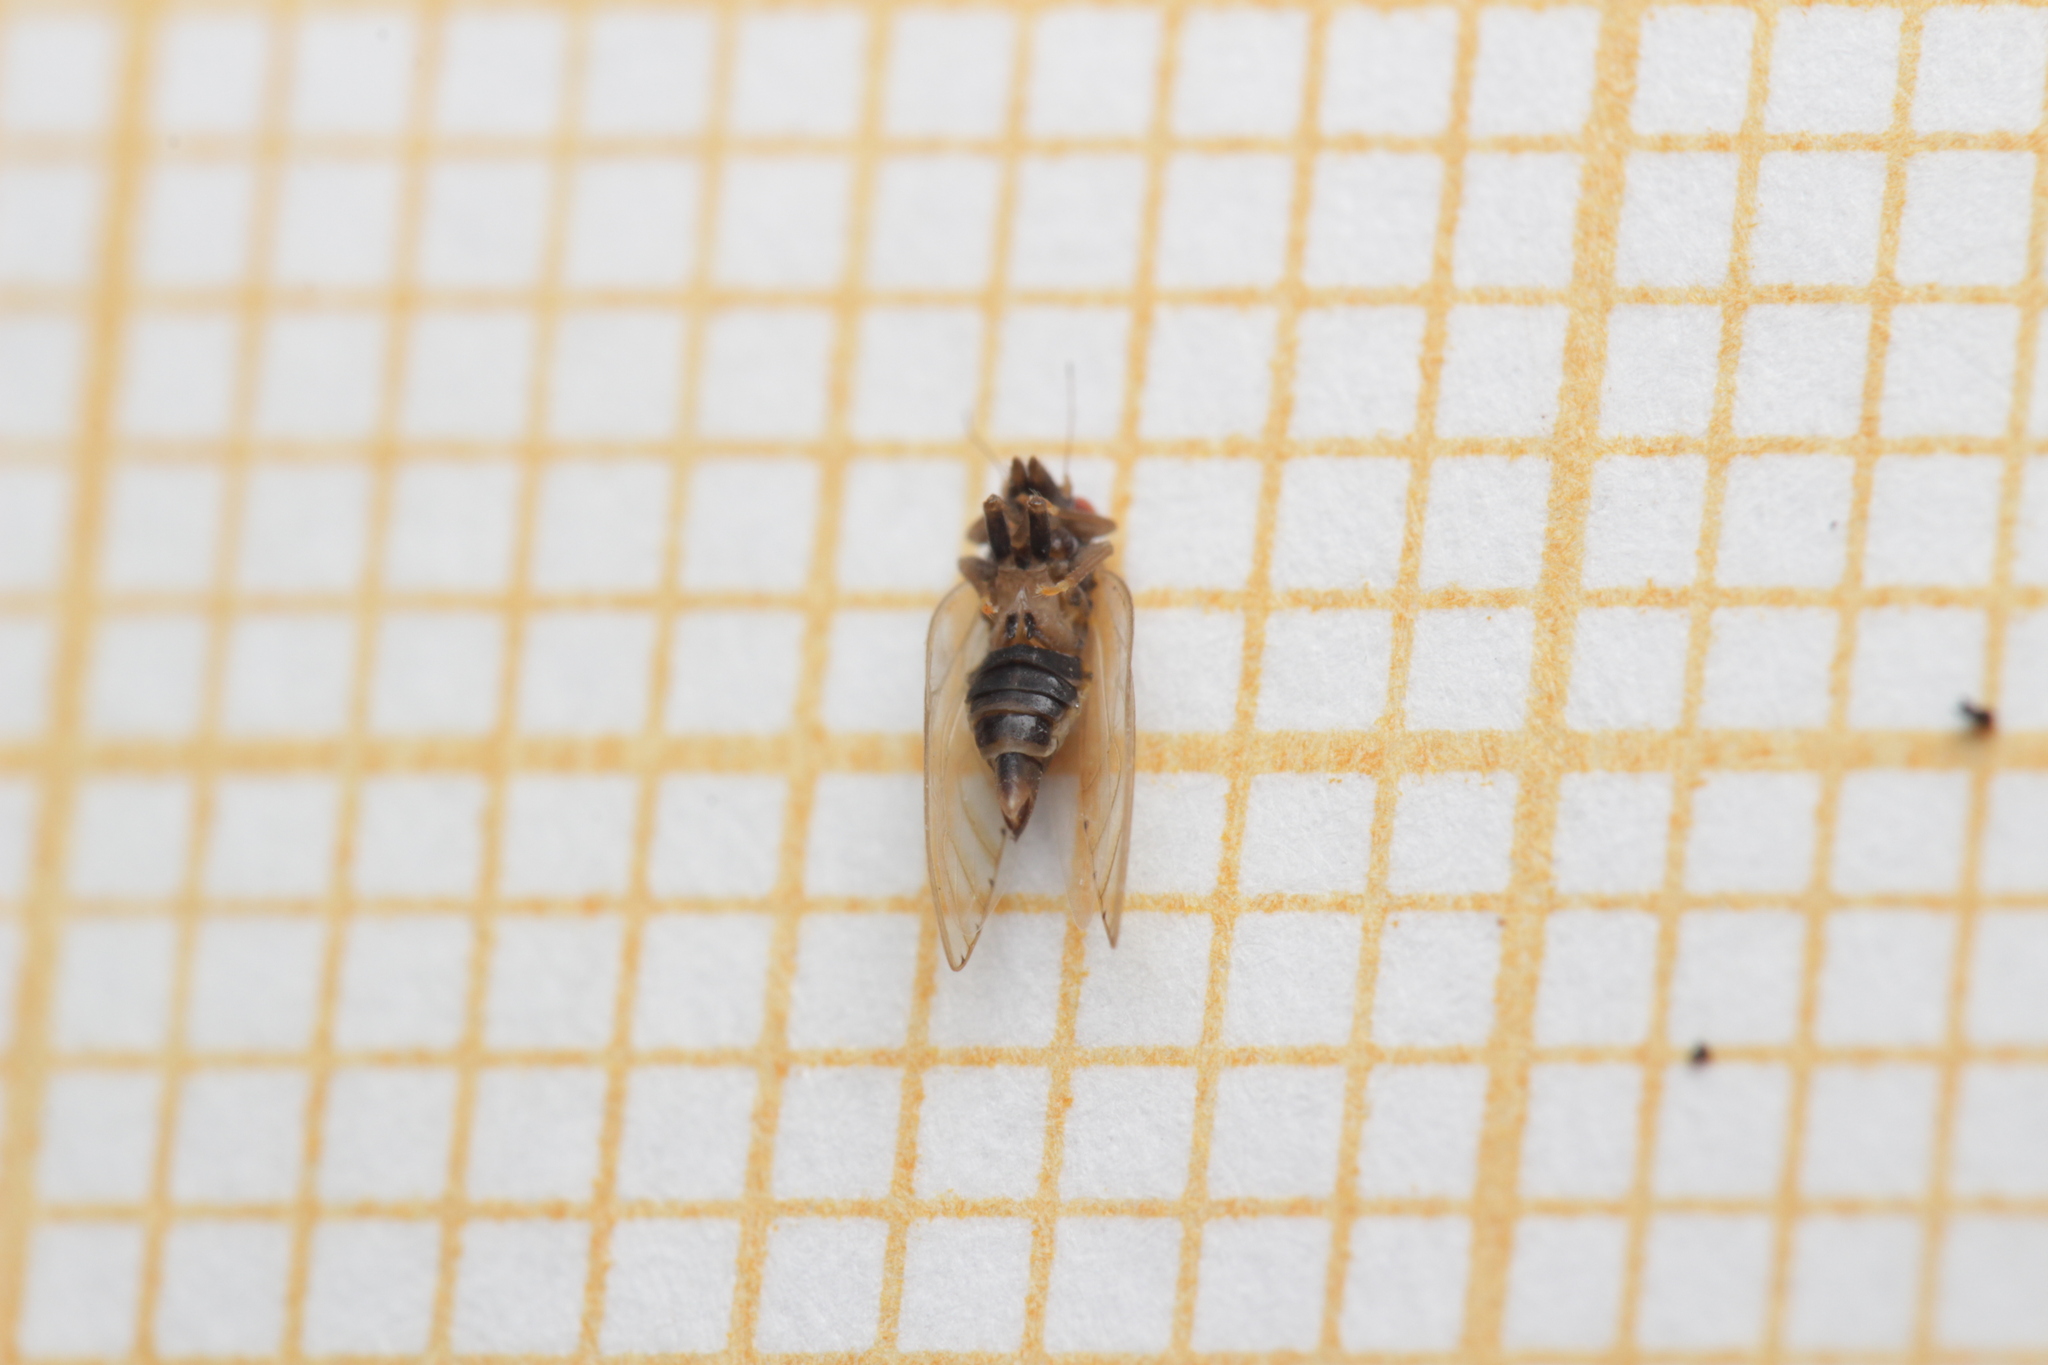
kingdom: Animalia
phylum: Arthropoda
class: Insecta
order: Hemiptera
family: Psyllidae
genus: Spanioneura
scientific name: Spanioneura fonscolombii
